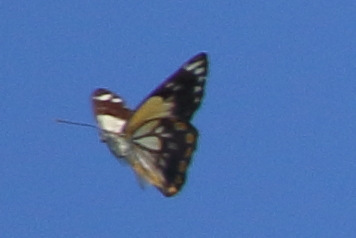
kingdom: Animalia
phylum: Arthropoda
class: Insecta
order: Lepidoptera
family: Pieridae
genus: Belenois
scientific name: Belenois java
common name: Caper white
